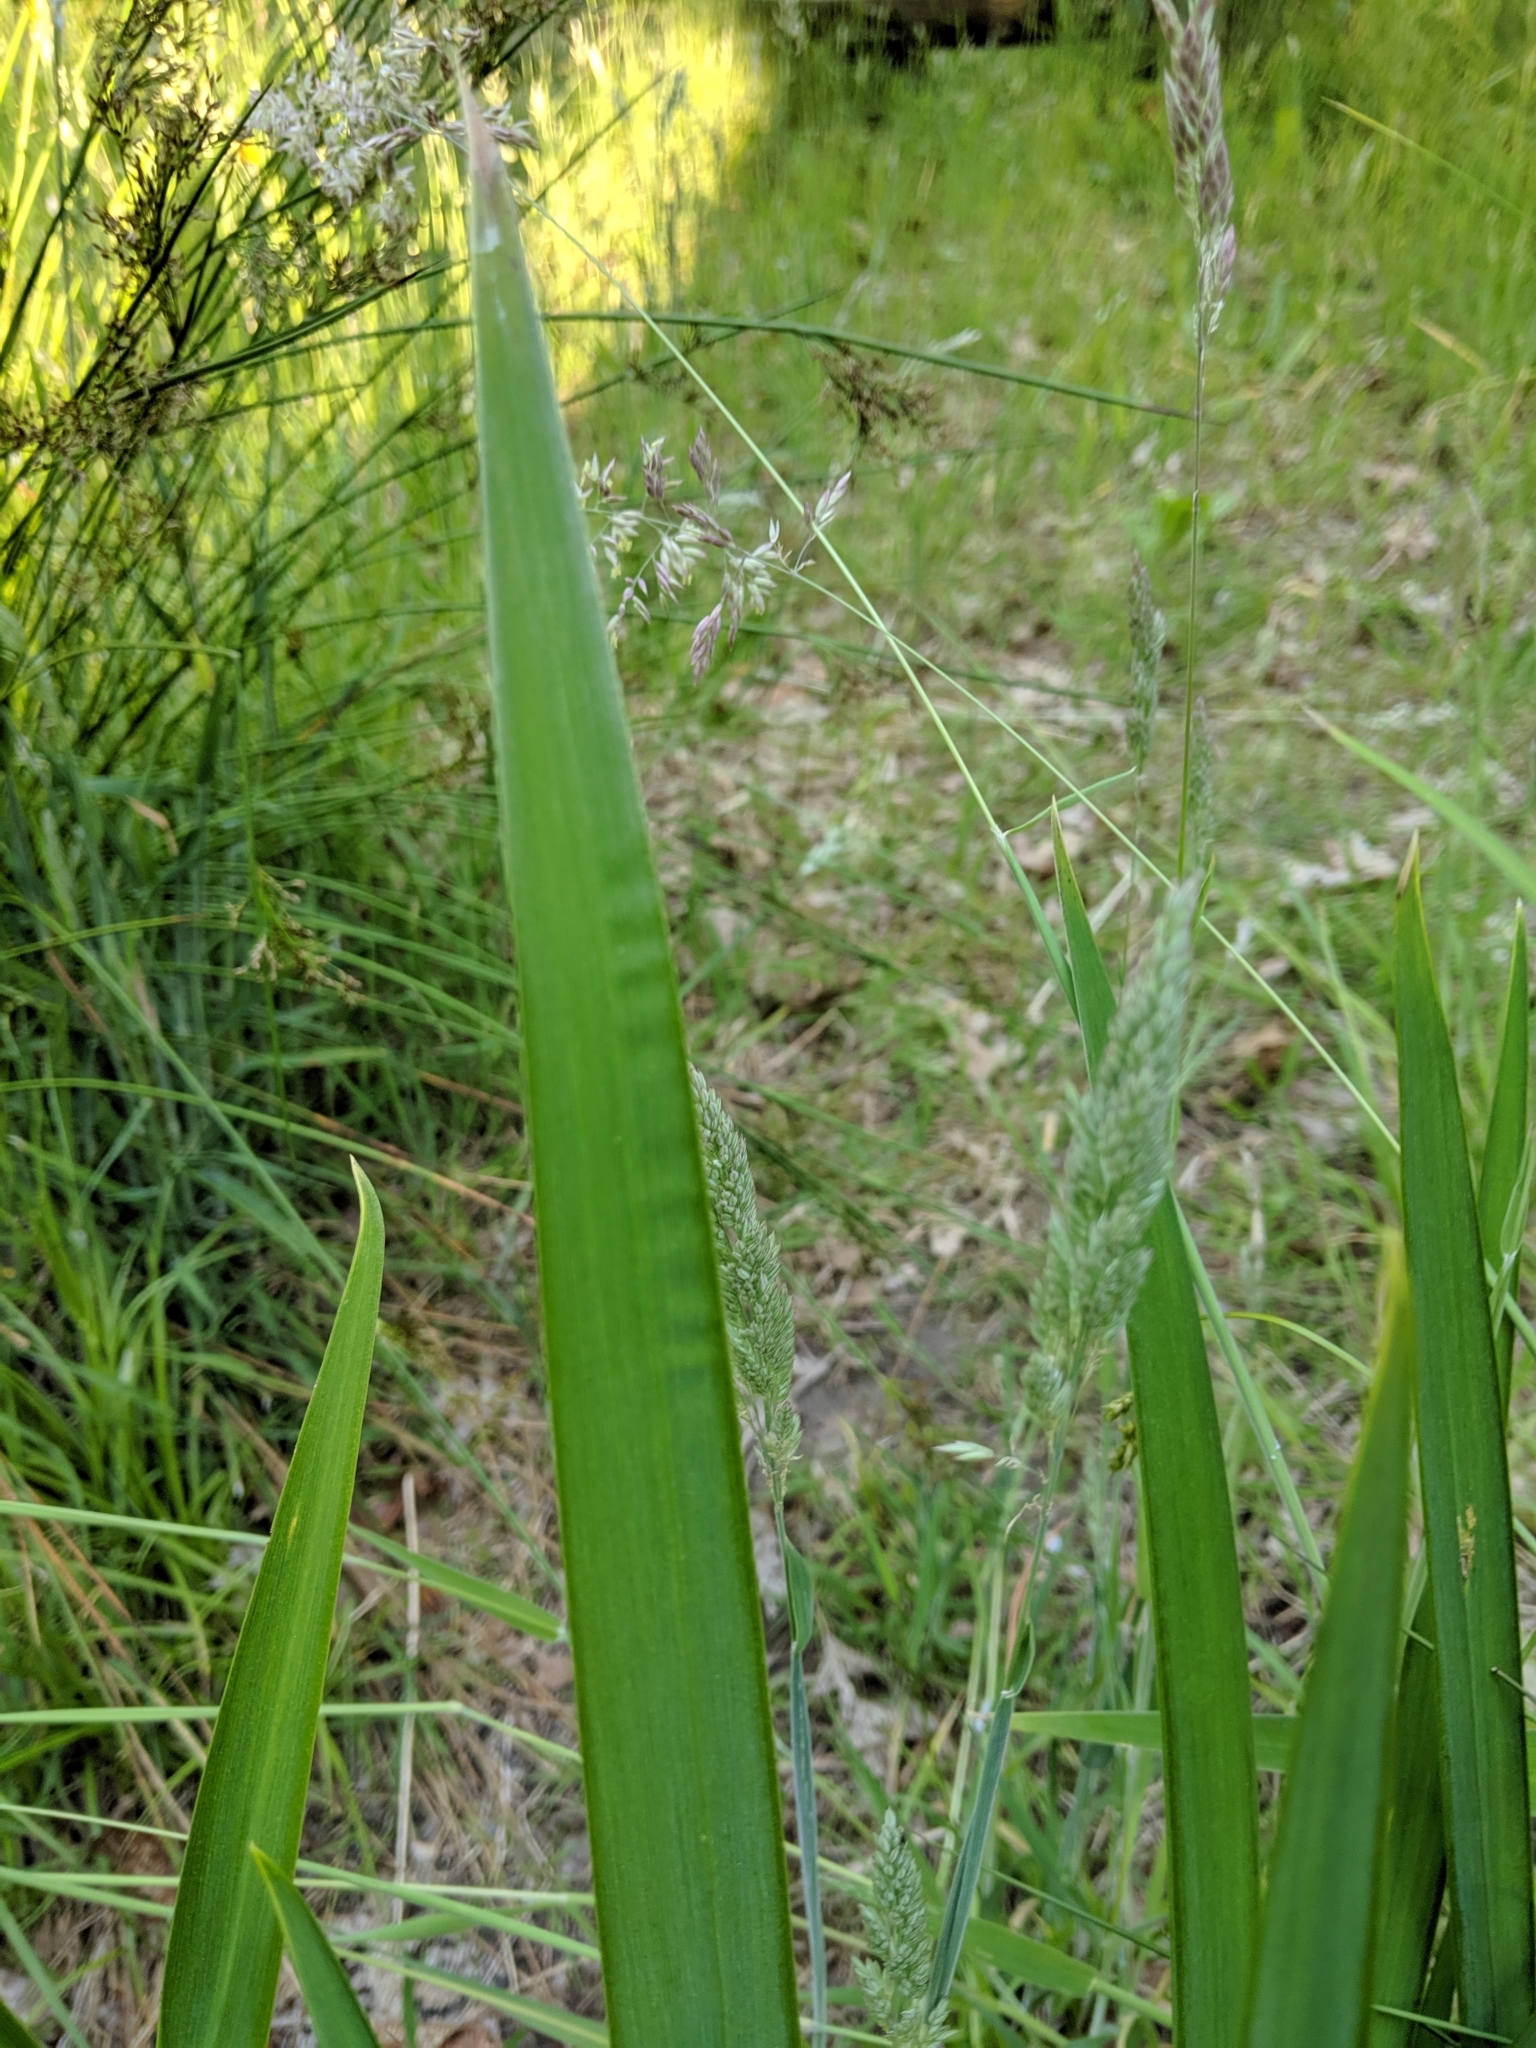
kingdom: Plantae
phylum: Tracheophyta
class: Liliopsida
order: Asparagales
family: Iridaceae
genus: Iris
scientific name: Iris pseudacorus
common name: Yellow flag
